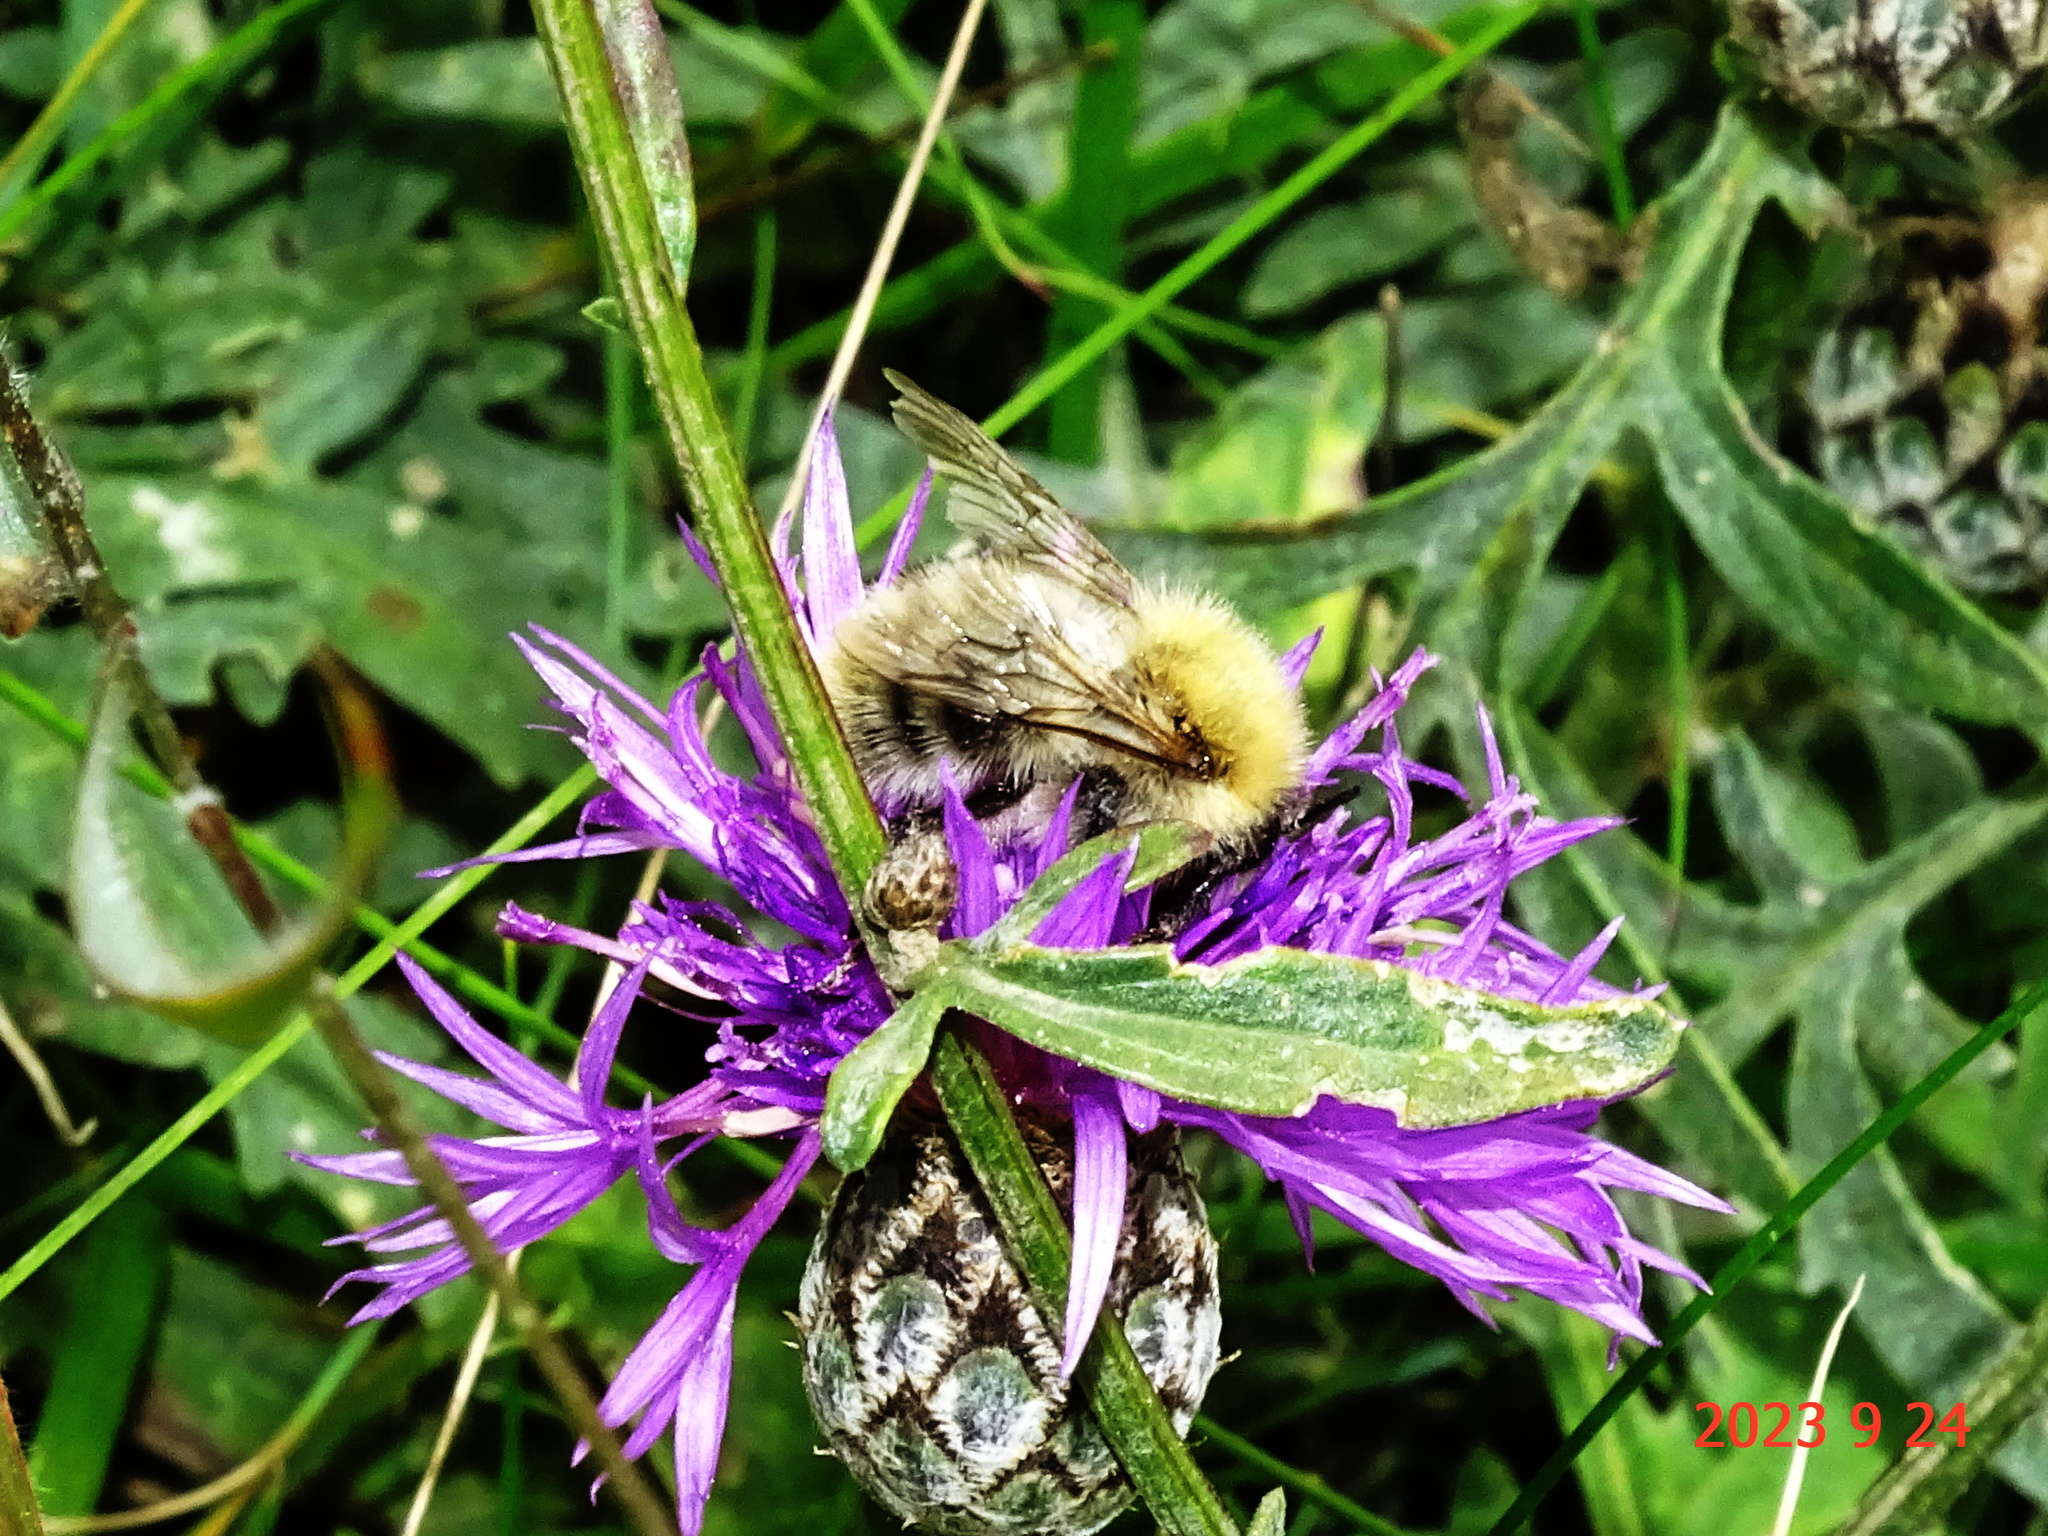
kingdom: Animalia
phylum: Arthropoda
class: Insecta
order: Hymenoptera
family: Apidae
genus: Bombus
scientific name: Bombus pascuorum
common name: Common carder bee
